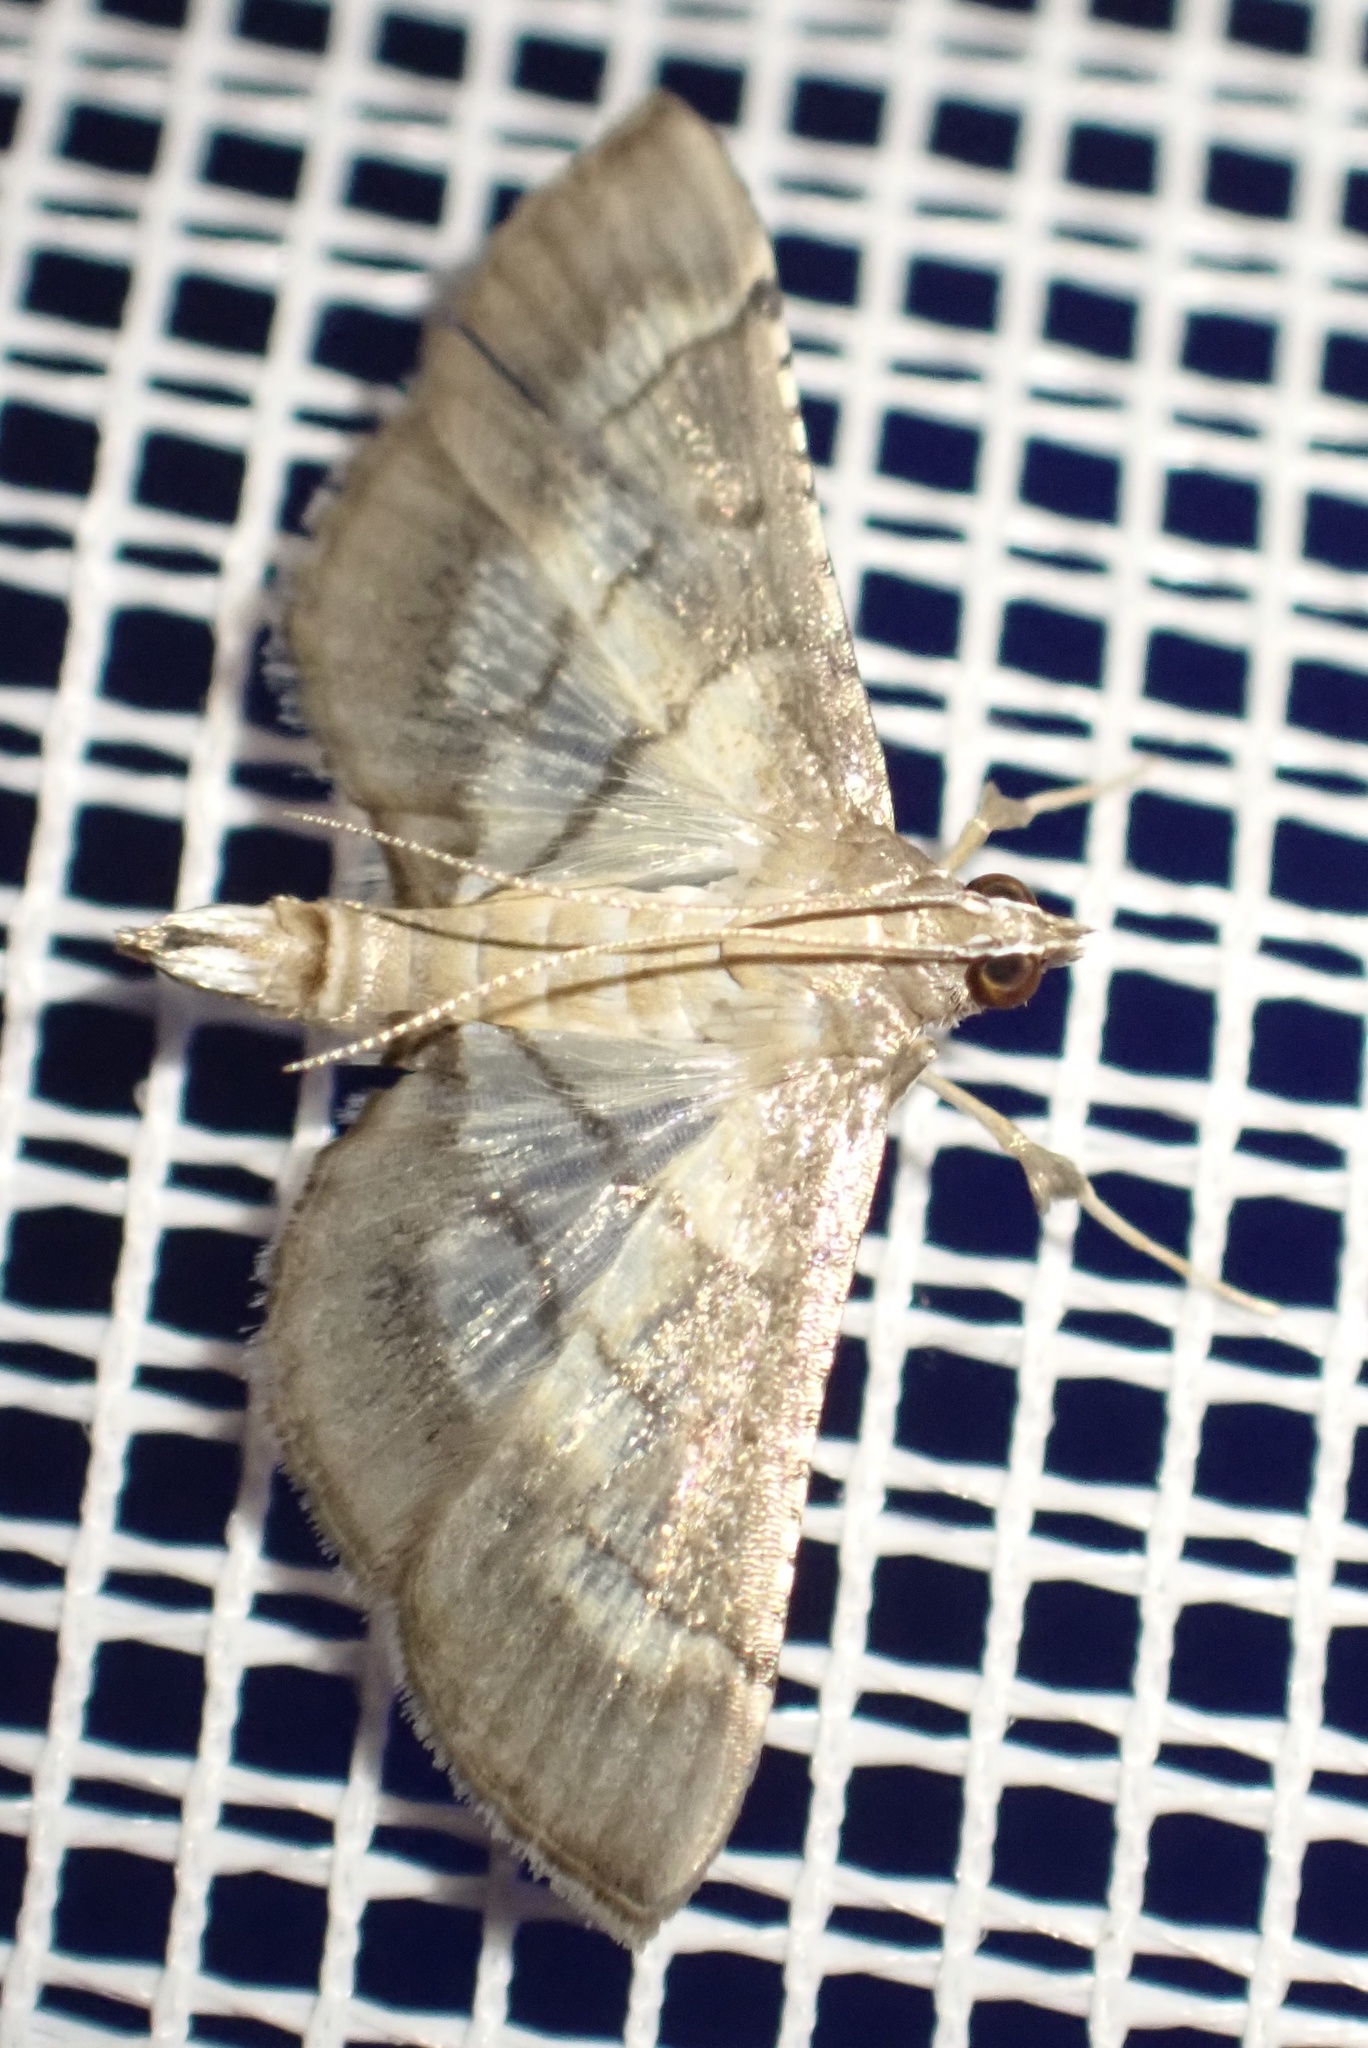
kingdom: Animalia
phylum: Arthropoda
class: Insecta
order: Lepidoptera
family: Crambidae
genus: Cnaphalocrocis
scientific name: Cnaphalocrocis poeyalis
